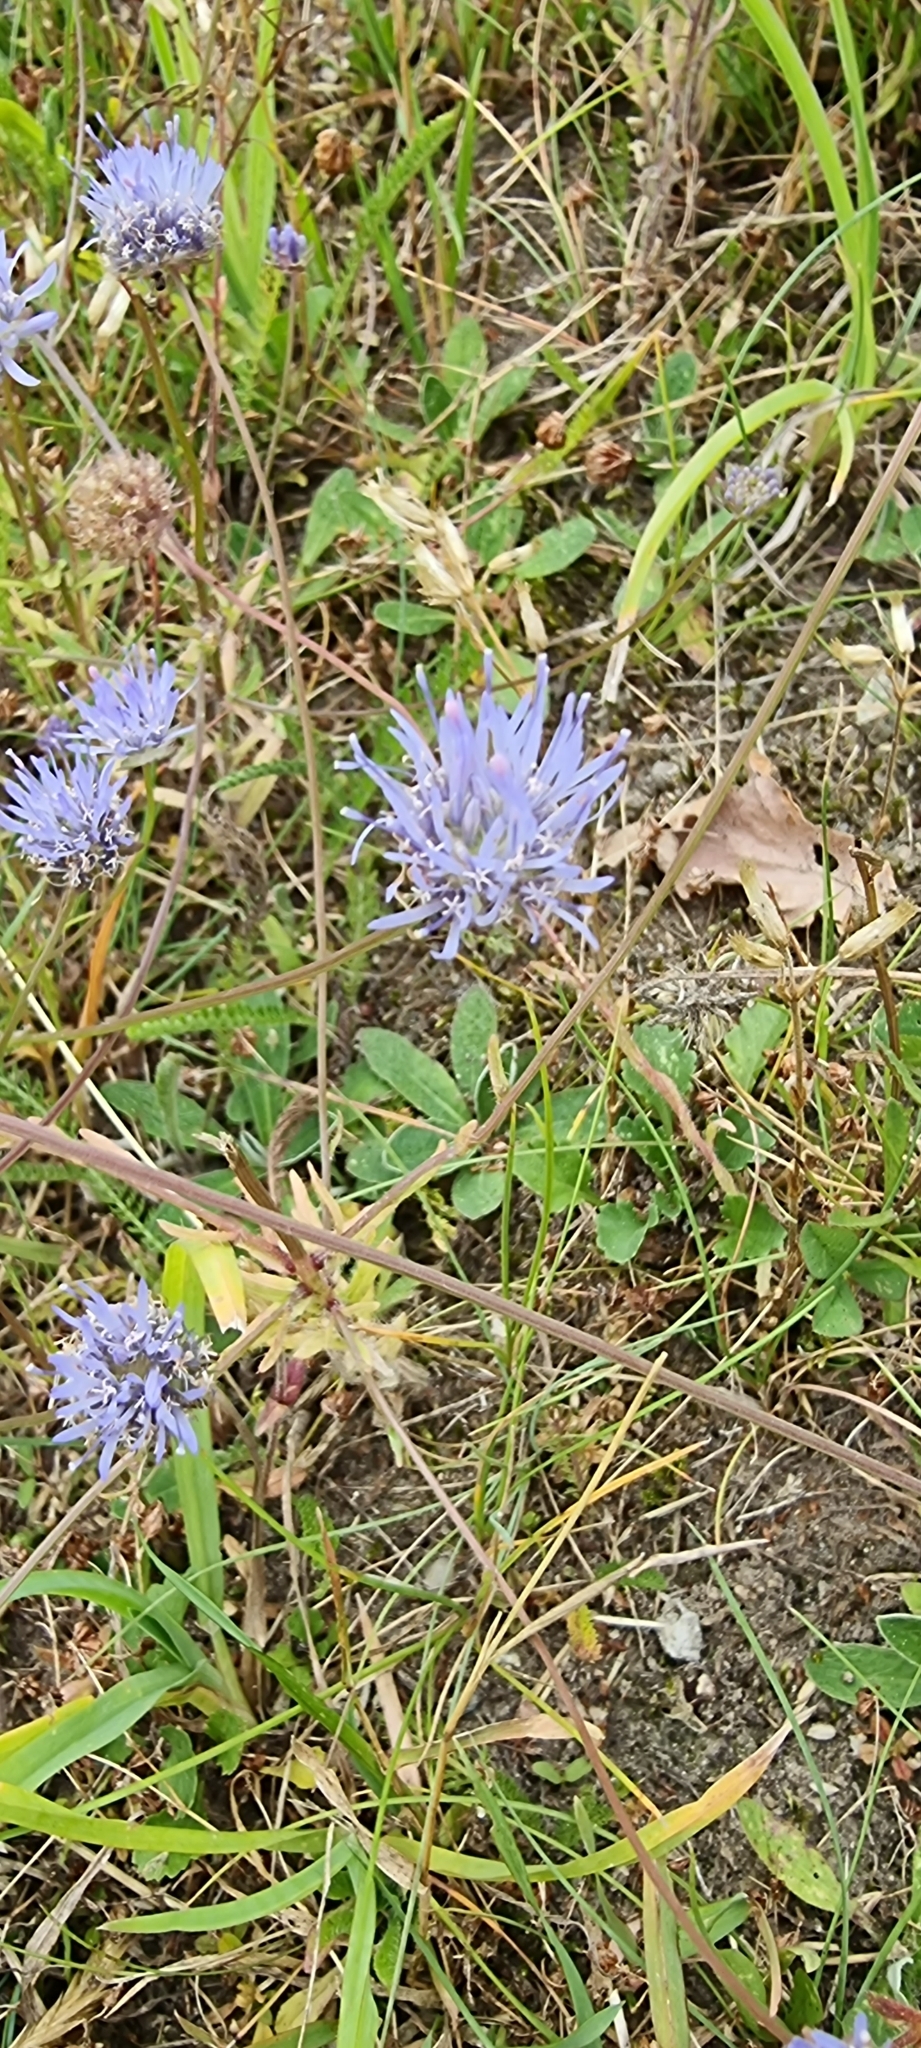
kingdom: Plantae
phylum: Tracheophyta
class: Magnoliopsida
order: Asterales
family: Campanulaceae
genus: Jasione
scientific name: Jasione montana
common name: Sheep's-bit
